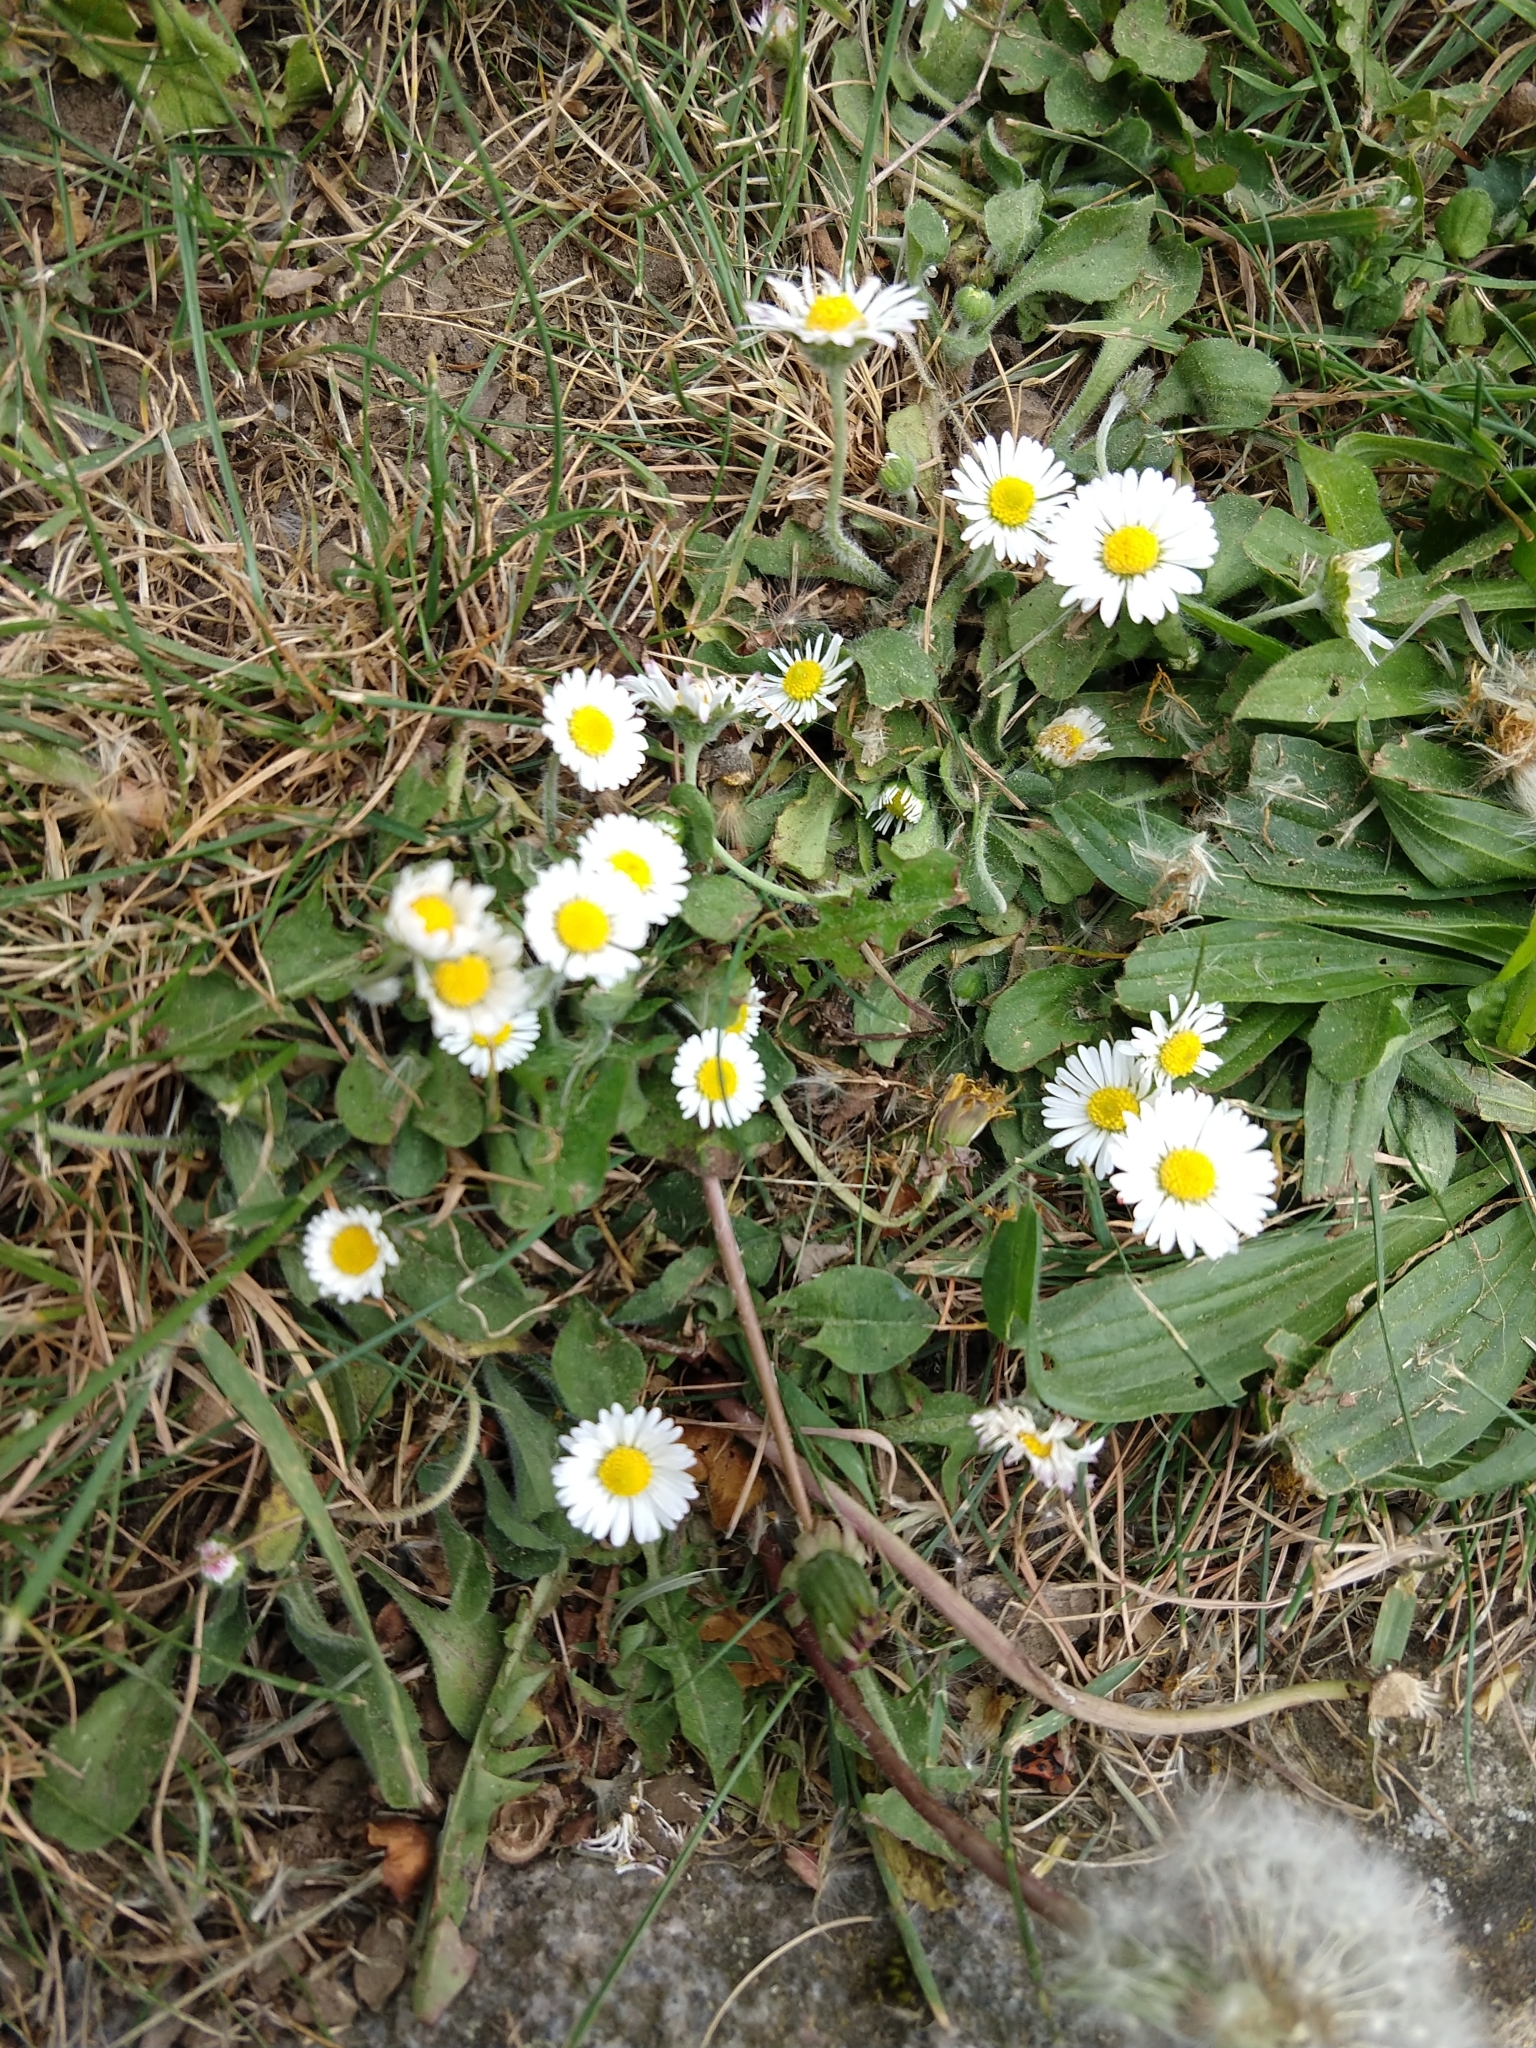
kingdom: Plantae
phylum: Tracheophyta
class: Magnoliopsida
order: Asterales
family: Asteraceae
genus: Bellis
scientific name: Bellis perennis
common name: Lawndaisy
